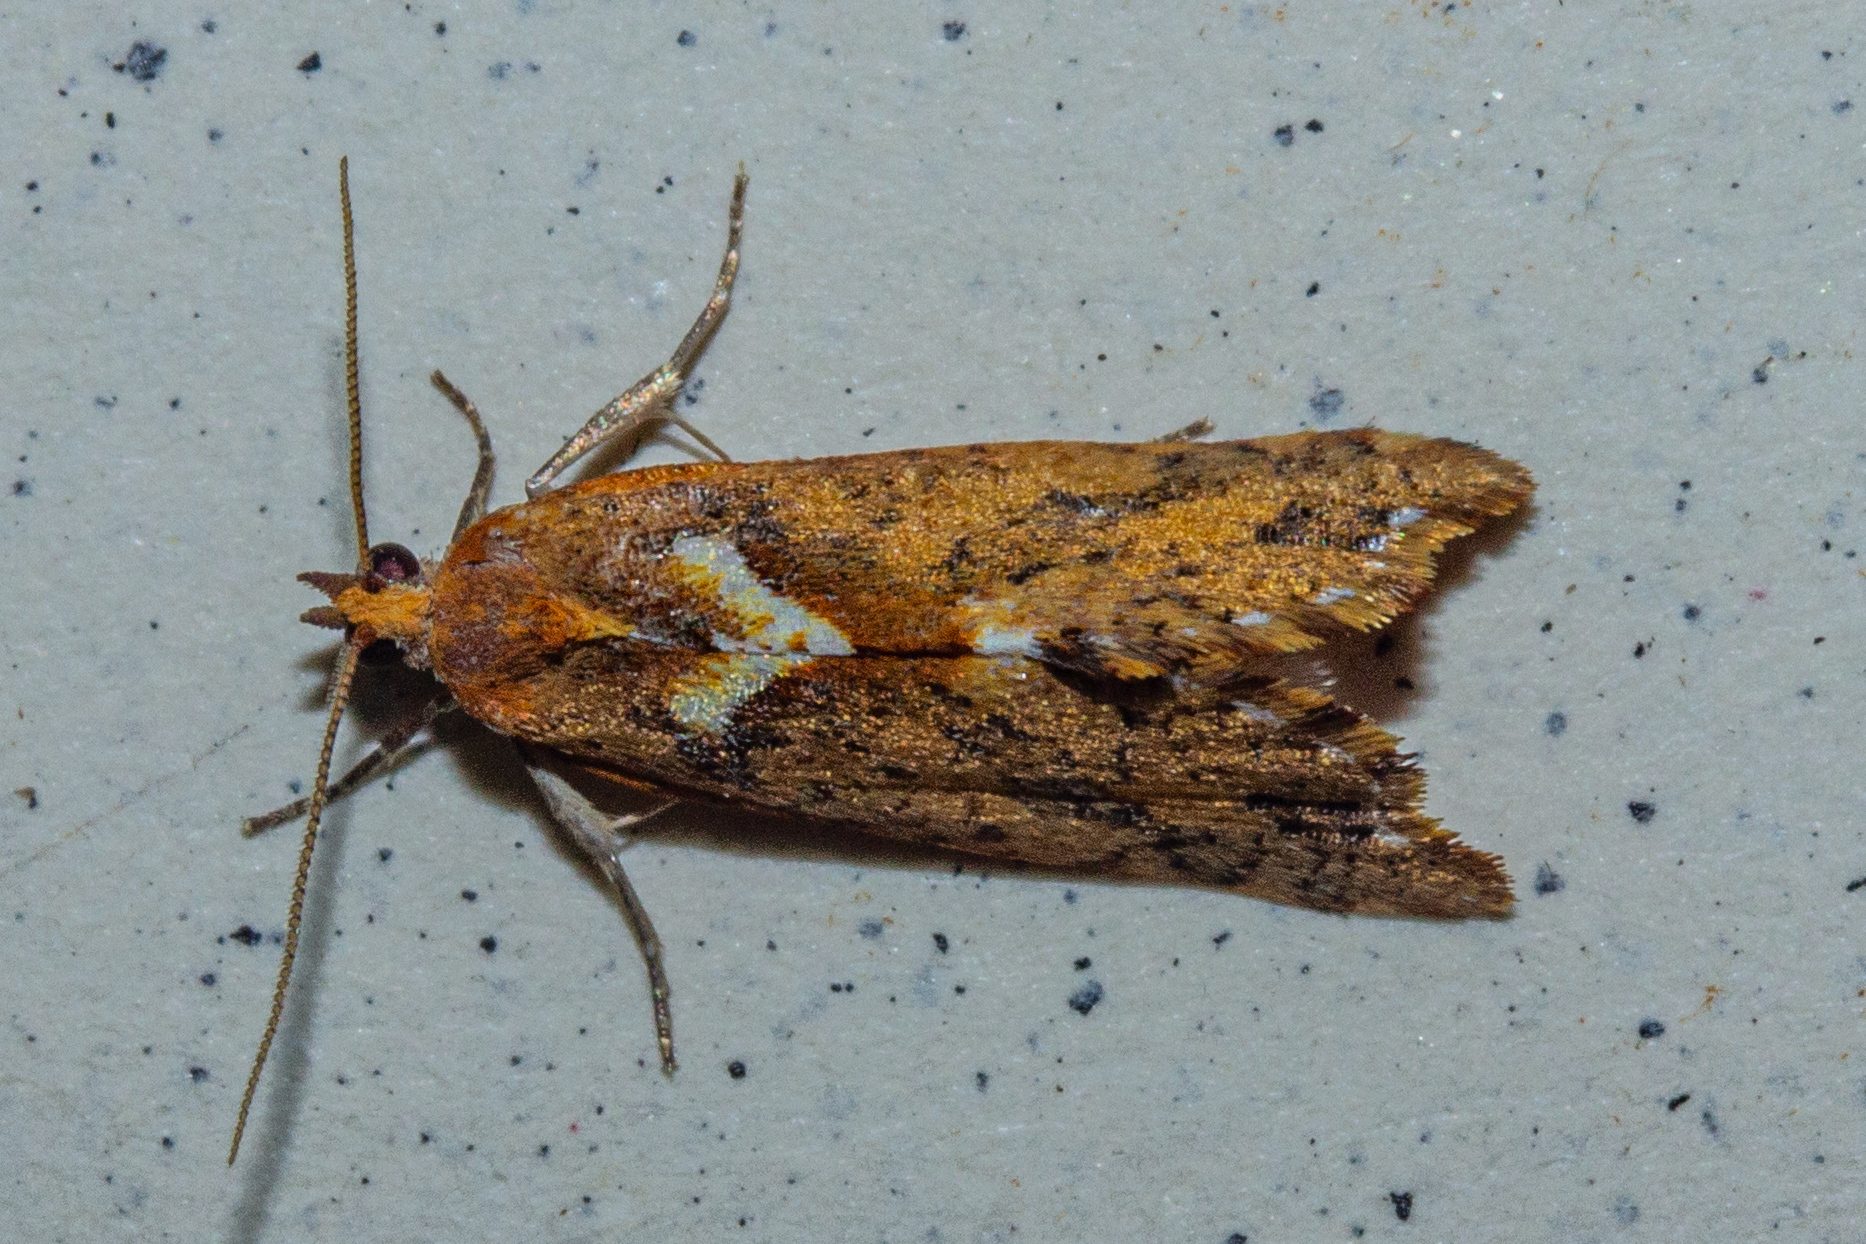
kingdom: Animalia
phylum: Arthropoda
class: Insecta
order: Lepidoptera
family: Tortricidae
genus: Pyrgotis
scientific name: Pyrgotis pyramidias
